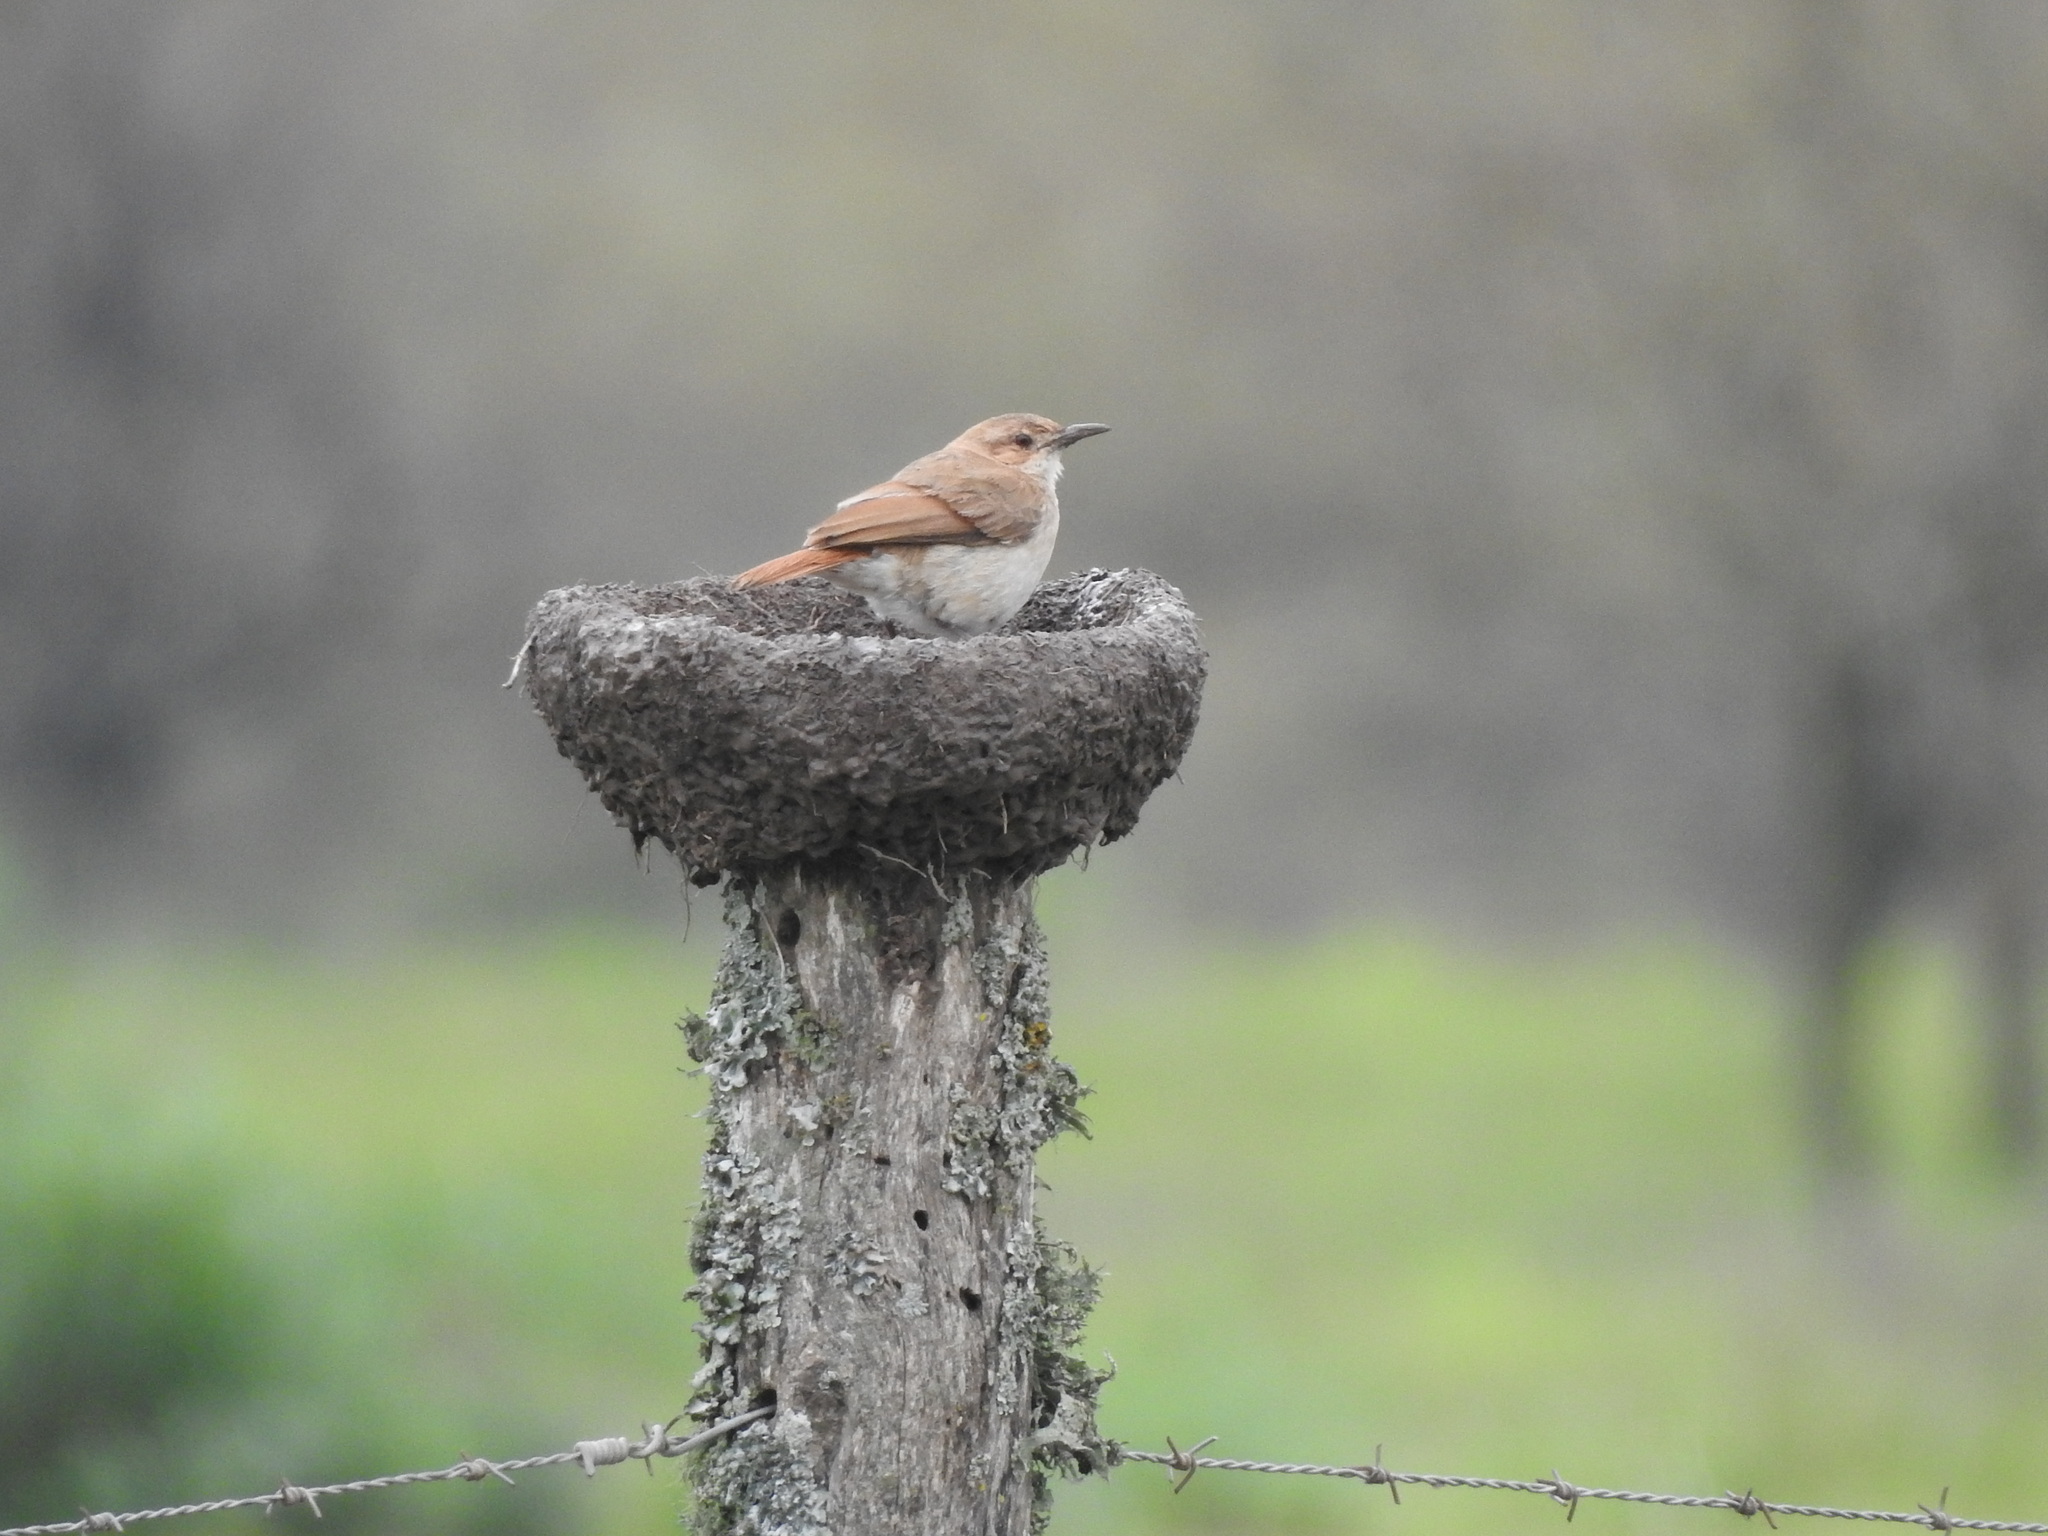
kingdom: Animalia
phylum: Chordata
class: Aves
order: Passeriformes
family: Furnariidae
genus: Furnarius
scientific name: Furnarius rufus
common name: Rufous hornero
